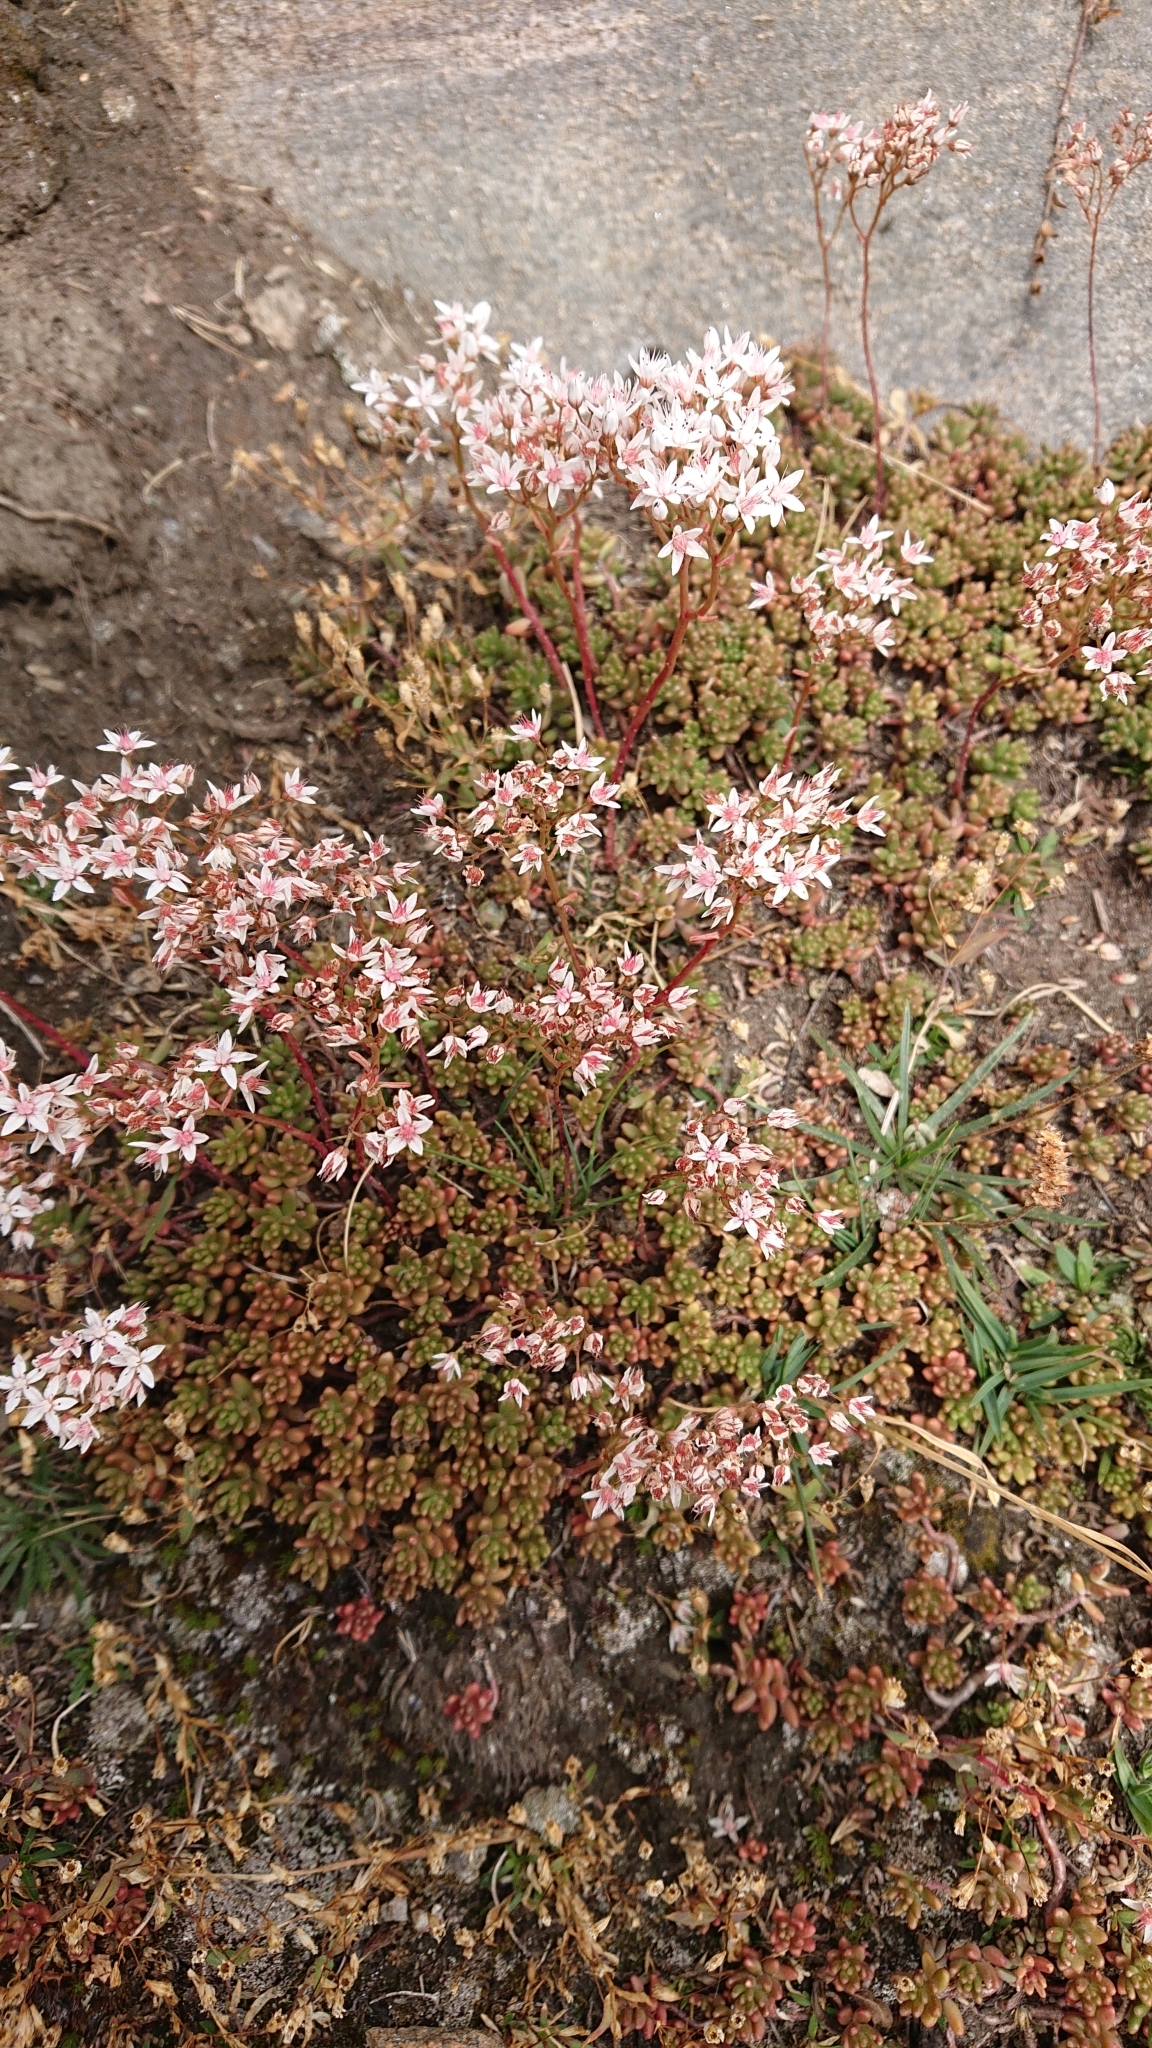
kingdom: Plantae
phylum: Tracheophyta
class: Magnoliopsida
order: Saxifragales
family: Crassulaceae
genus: Sedum
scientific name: Sedum album
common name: White stonecrop
